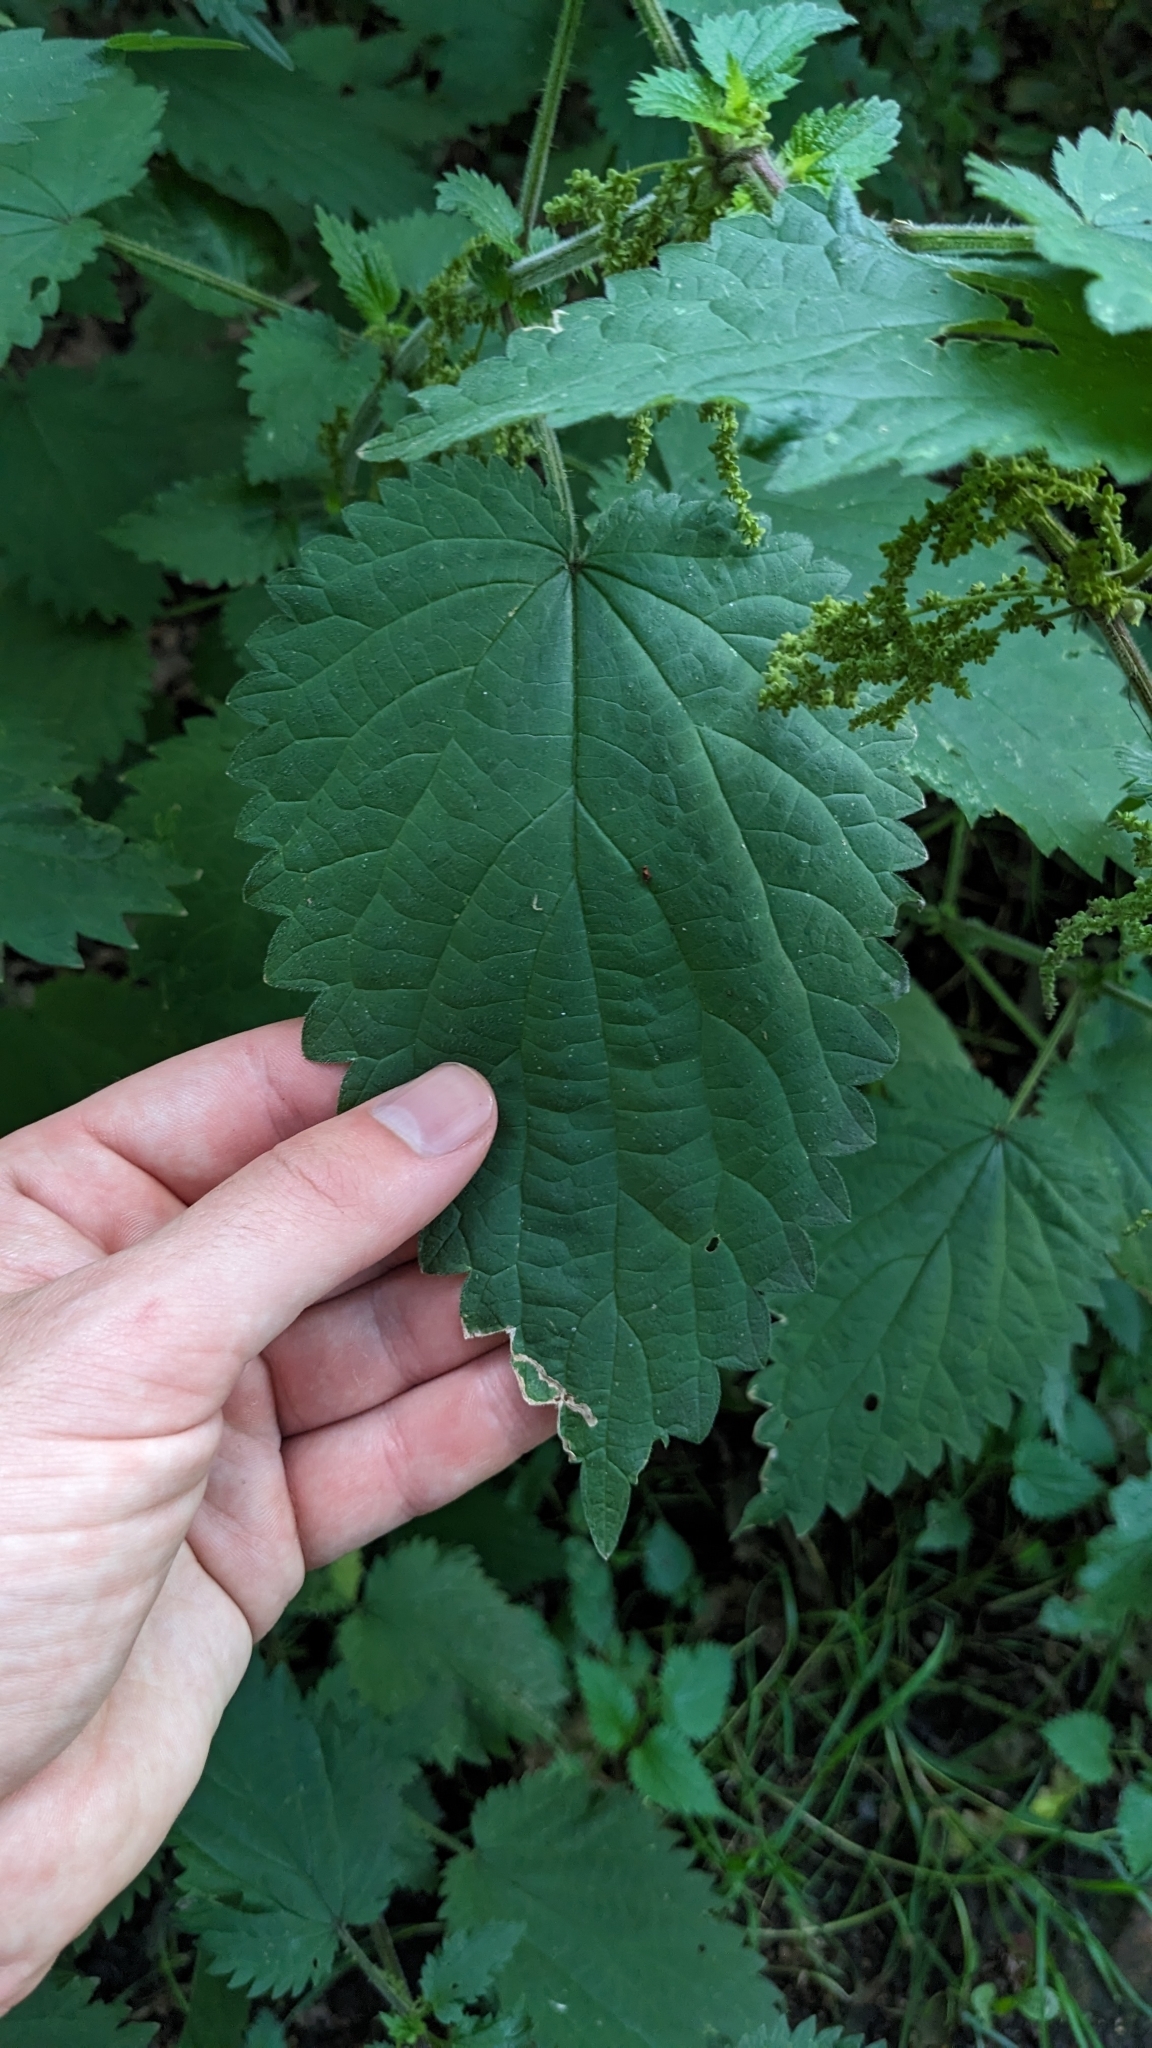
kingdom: Plantae
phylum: Tracheophyta
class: Magnoliopsida
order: Rosales
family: Urticaceae
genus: Urtica
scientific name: Urtica dioica
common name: Common nettle
